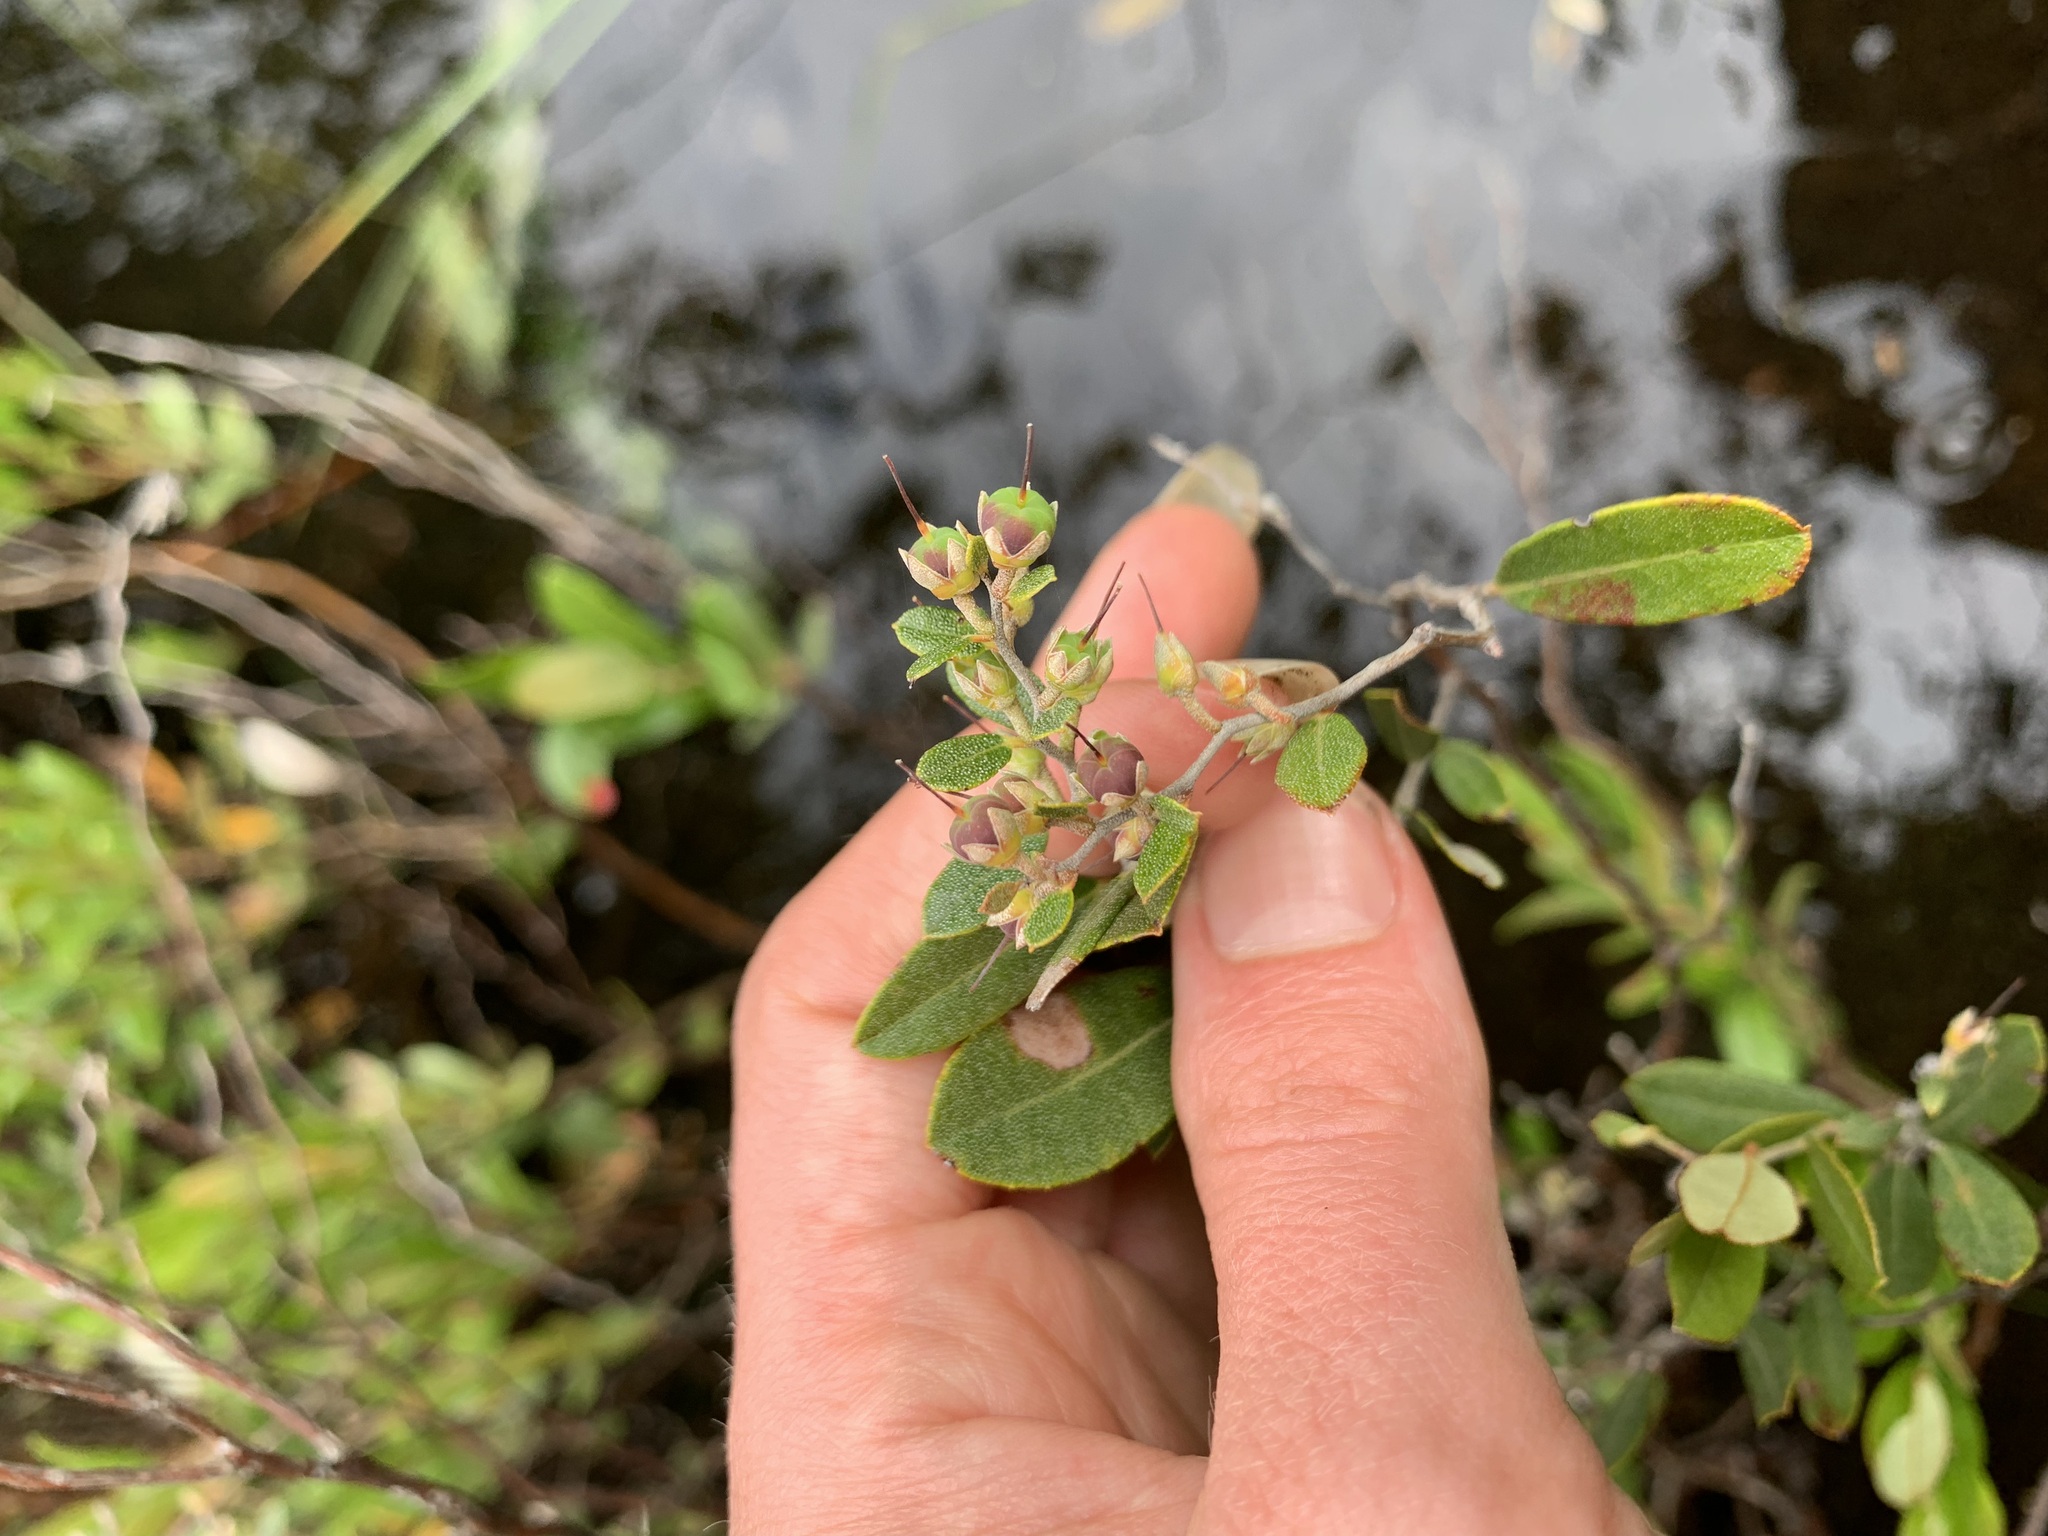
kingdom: Plantae
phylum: Tracheophyta
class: Magnoliopsida
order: Ericales
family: Ericaceae
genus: Chamaedaphne
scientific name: Chamaedaphne calyculata
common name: Leatherleaf
